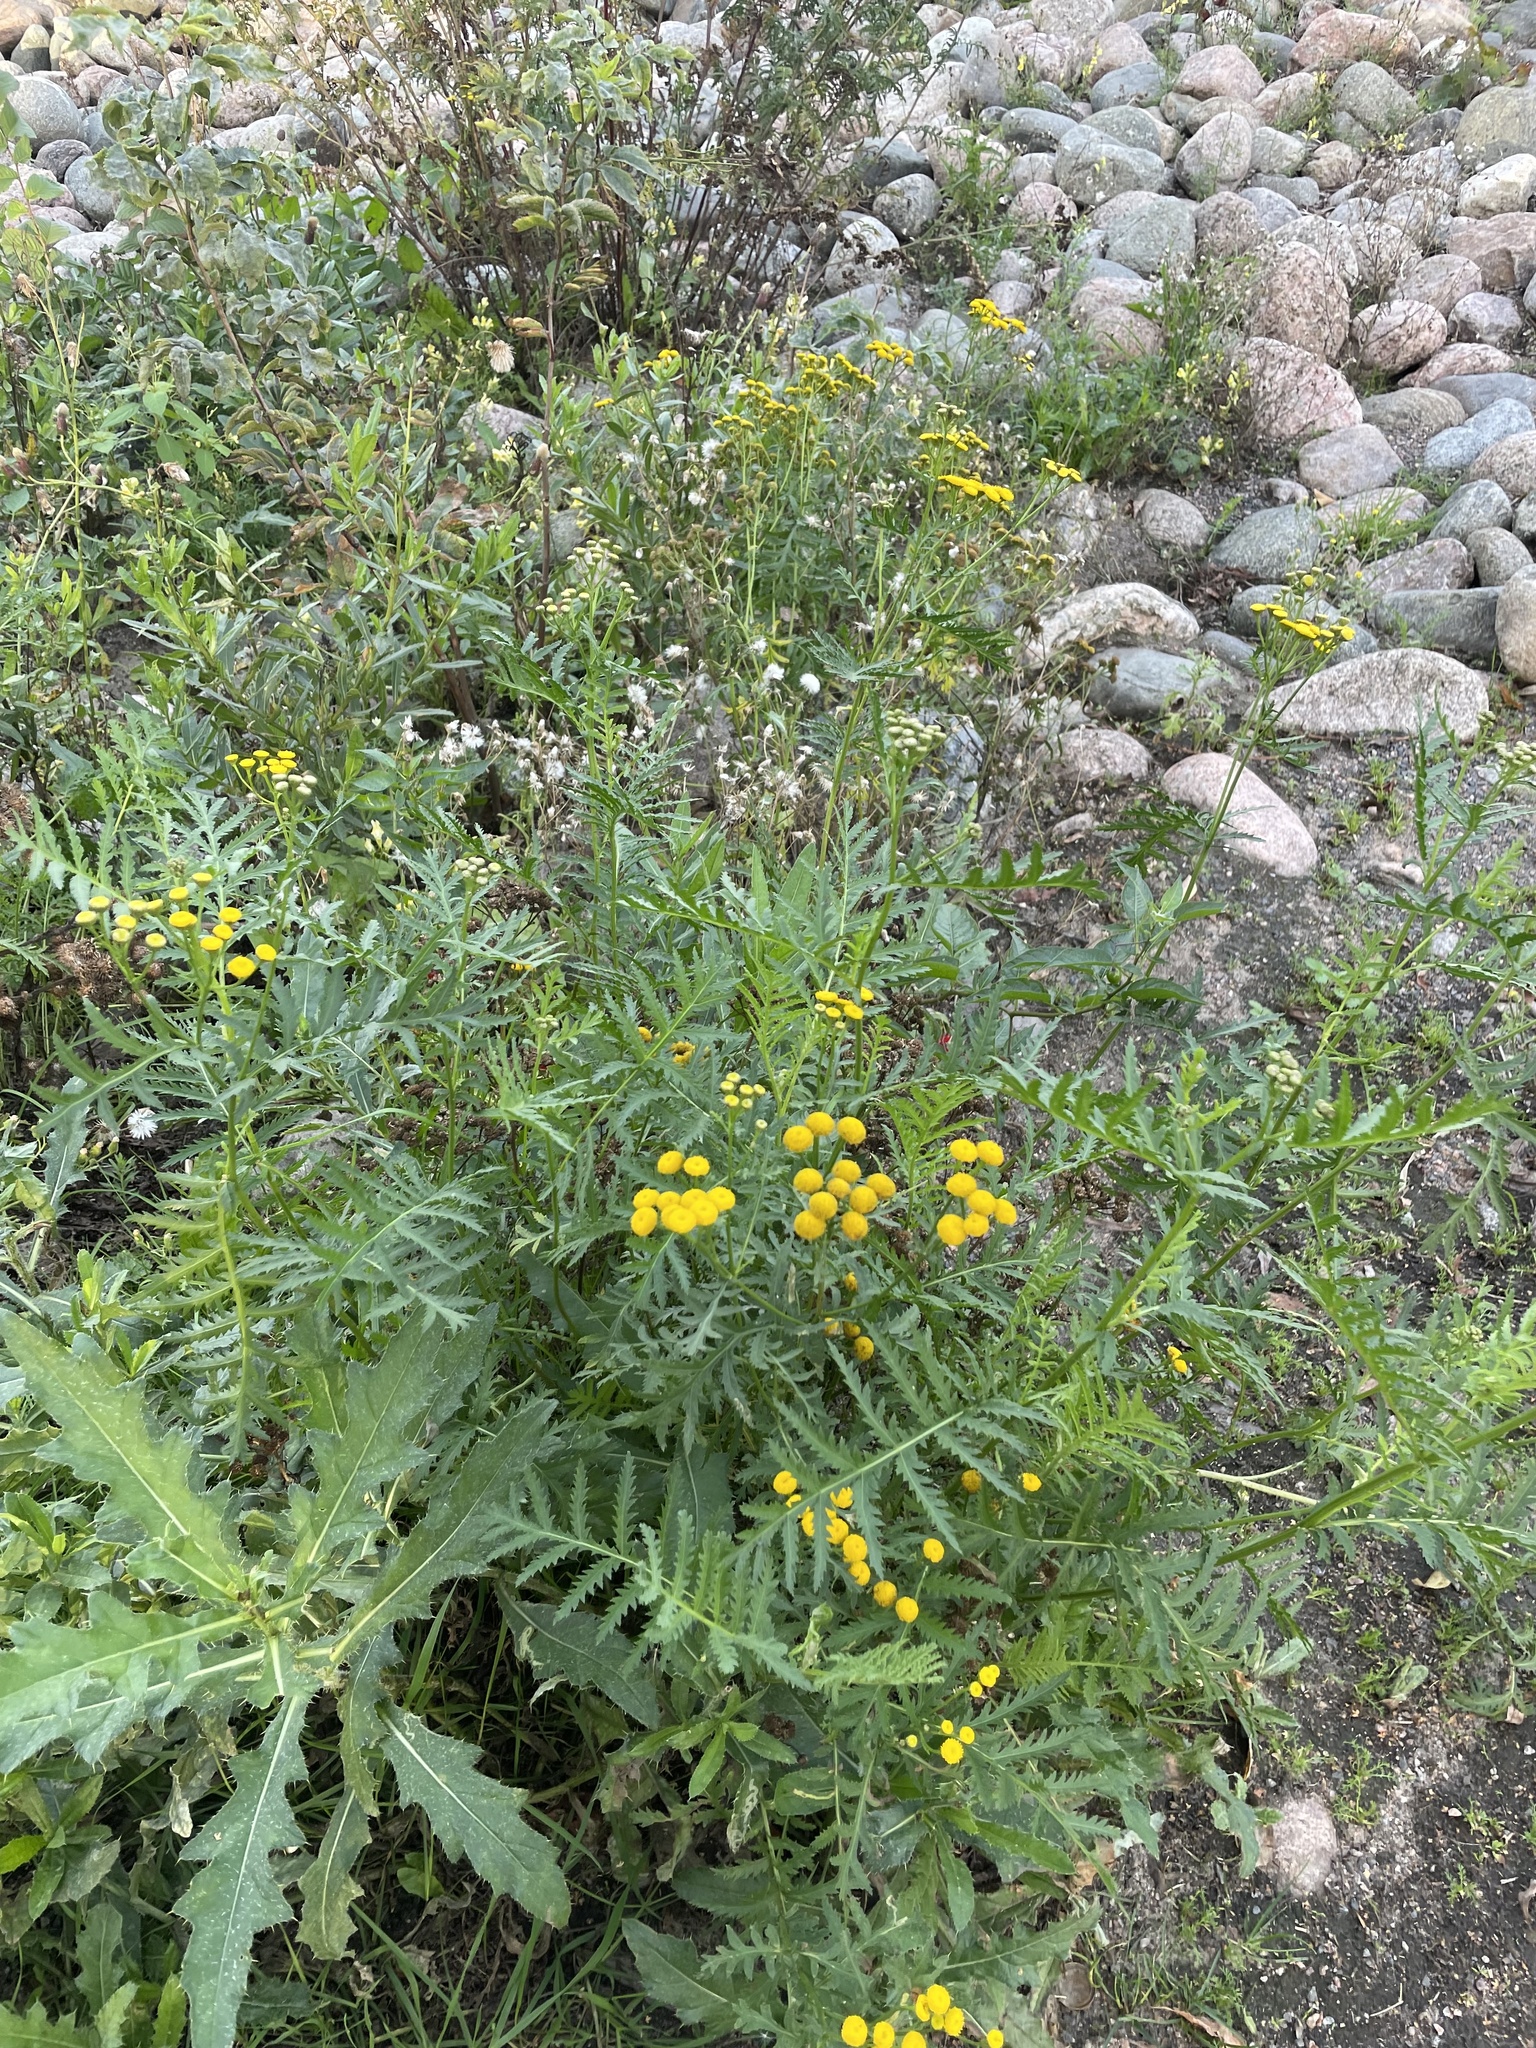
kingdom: Plantae
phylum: Tracheophyta
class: Magnoliopsida
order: Asterales
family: Asteraceae
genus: Tanacetum
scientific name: Tanacetum vulgare
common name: Common tansy
